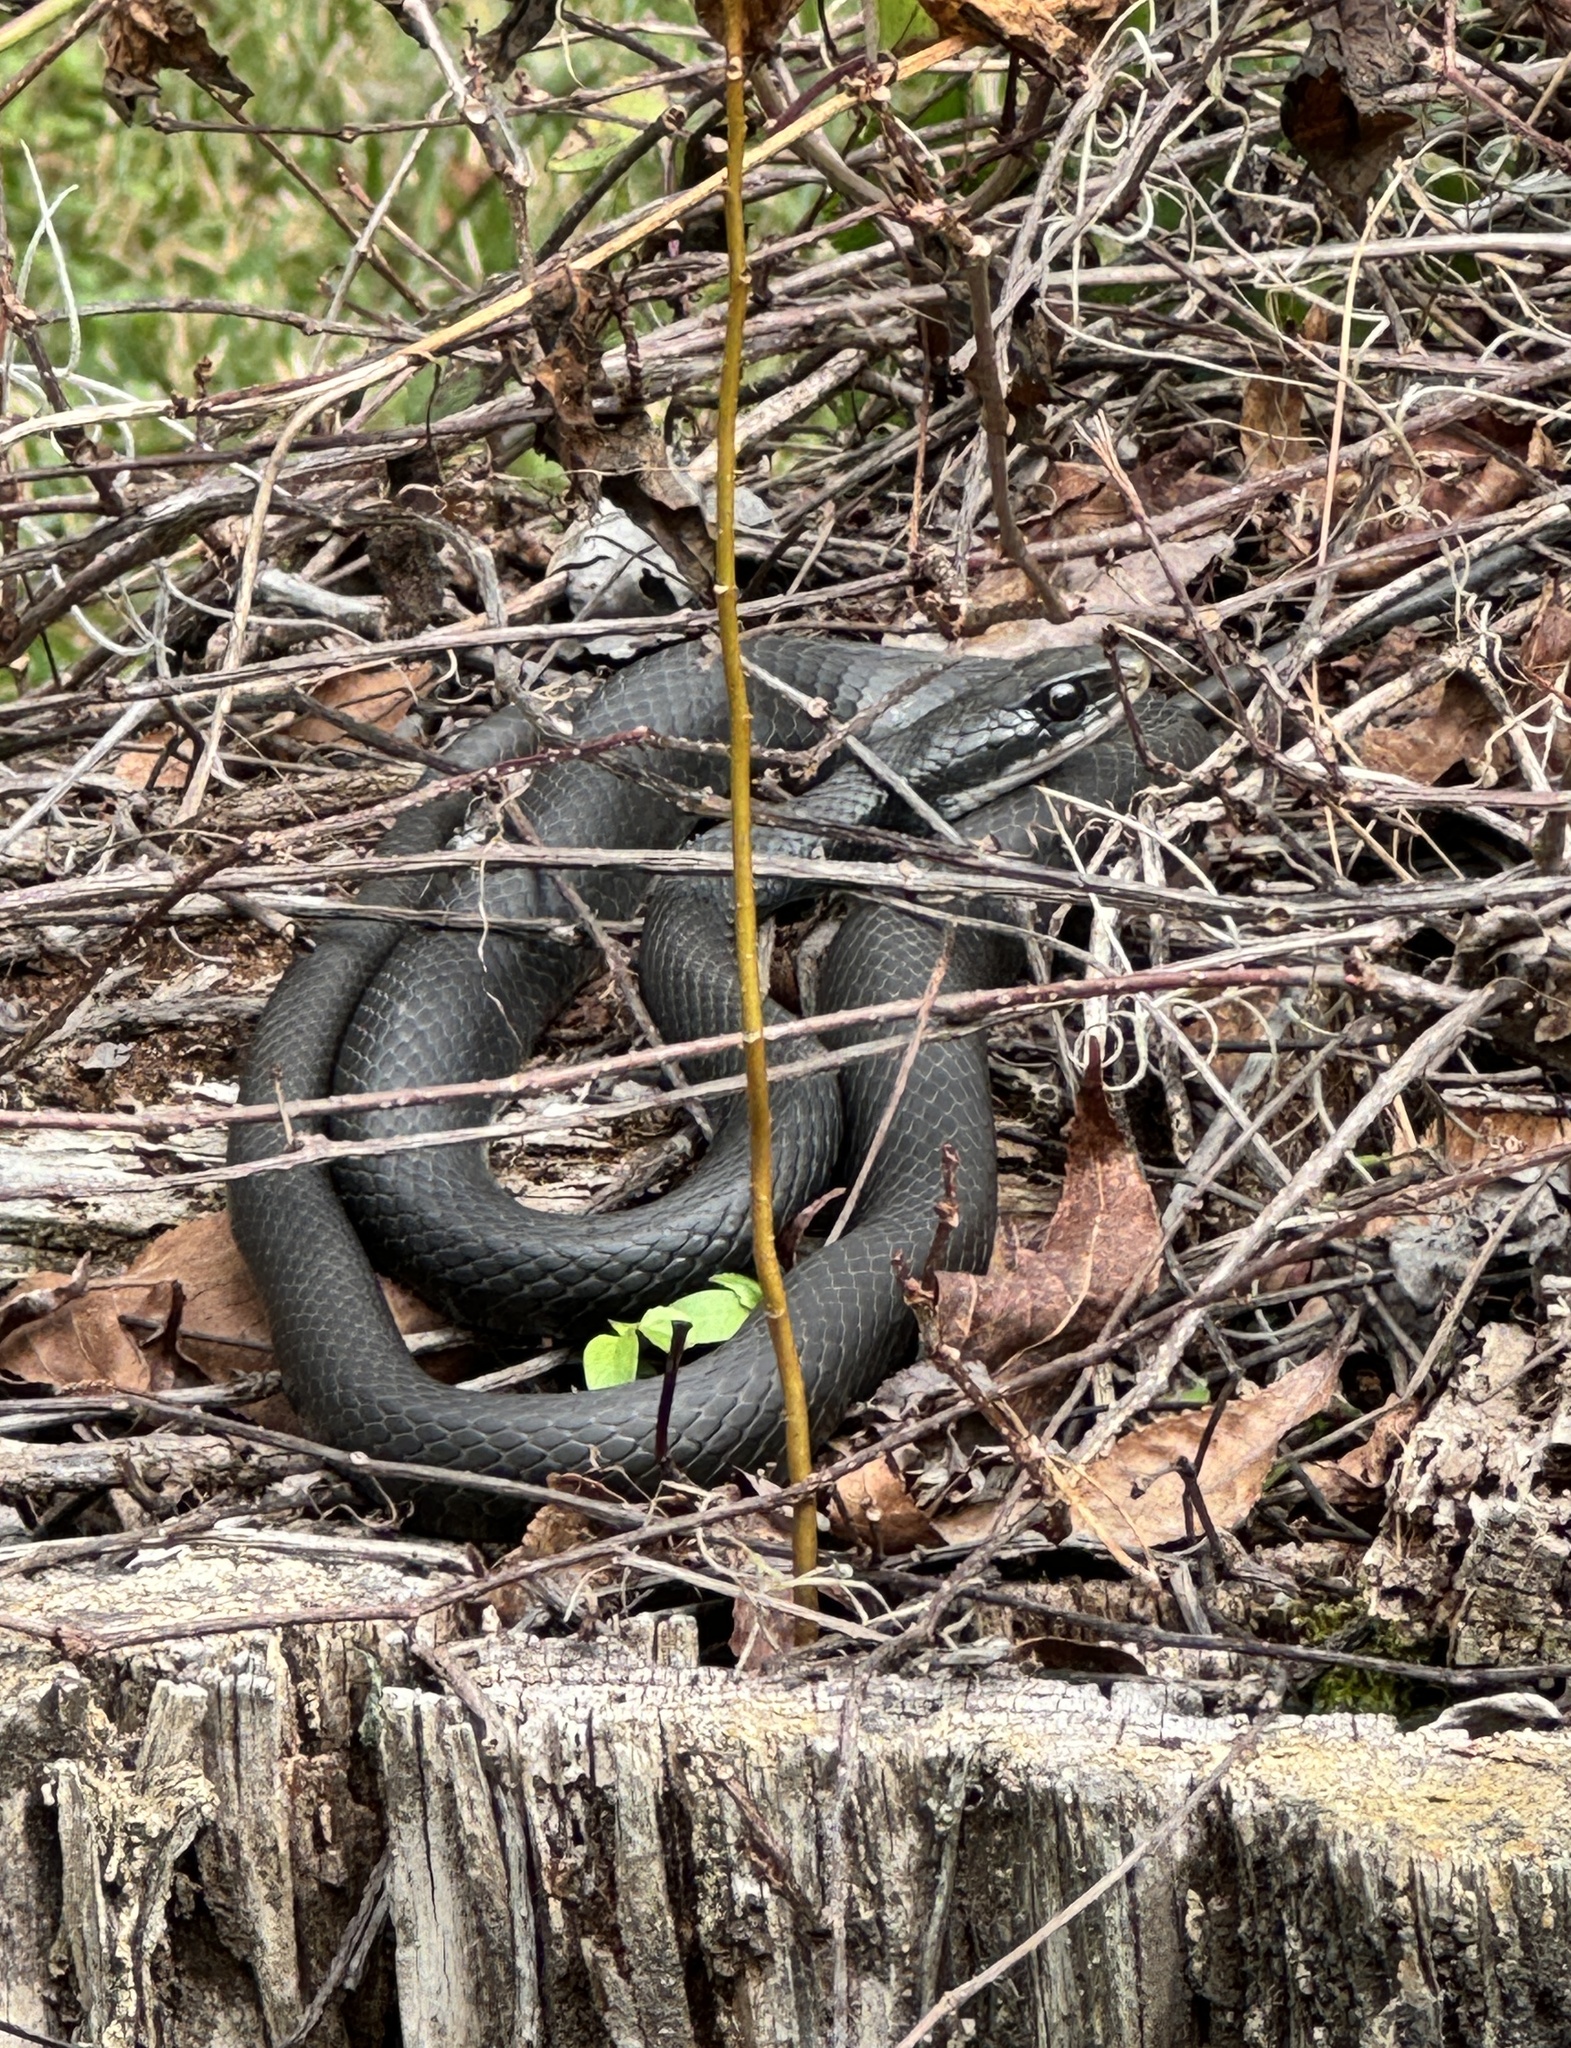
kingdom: Animalia
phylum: Chordata
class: Squamata
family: Colubridae
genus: Coluber
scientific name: Coluber constrictor
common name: Eastern racer
